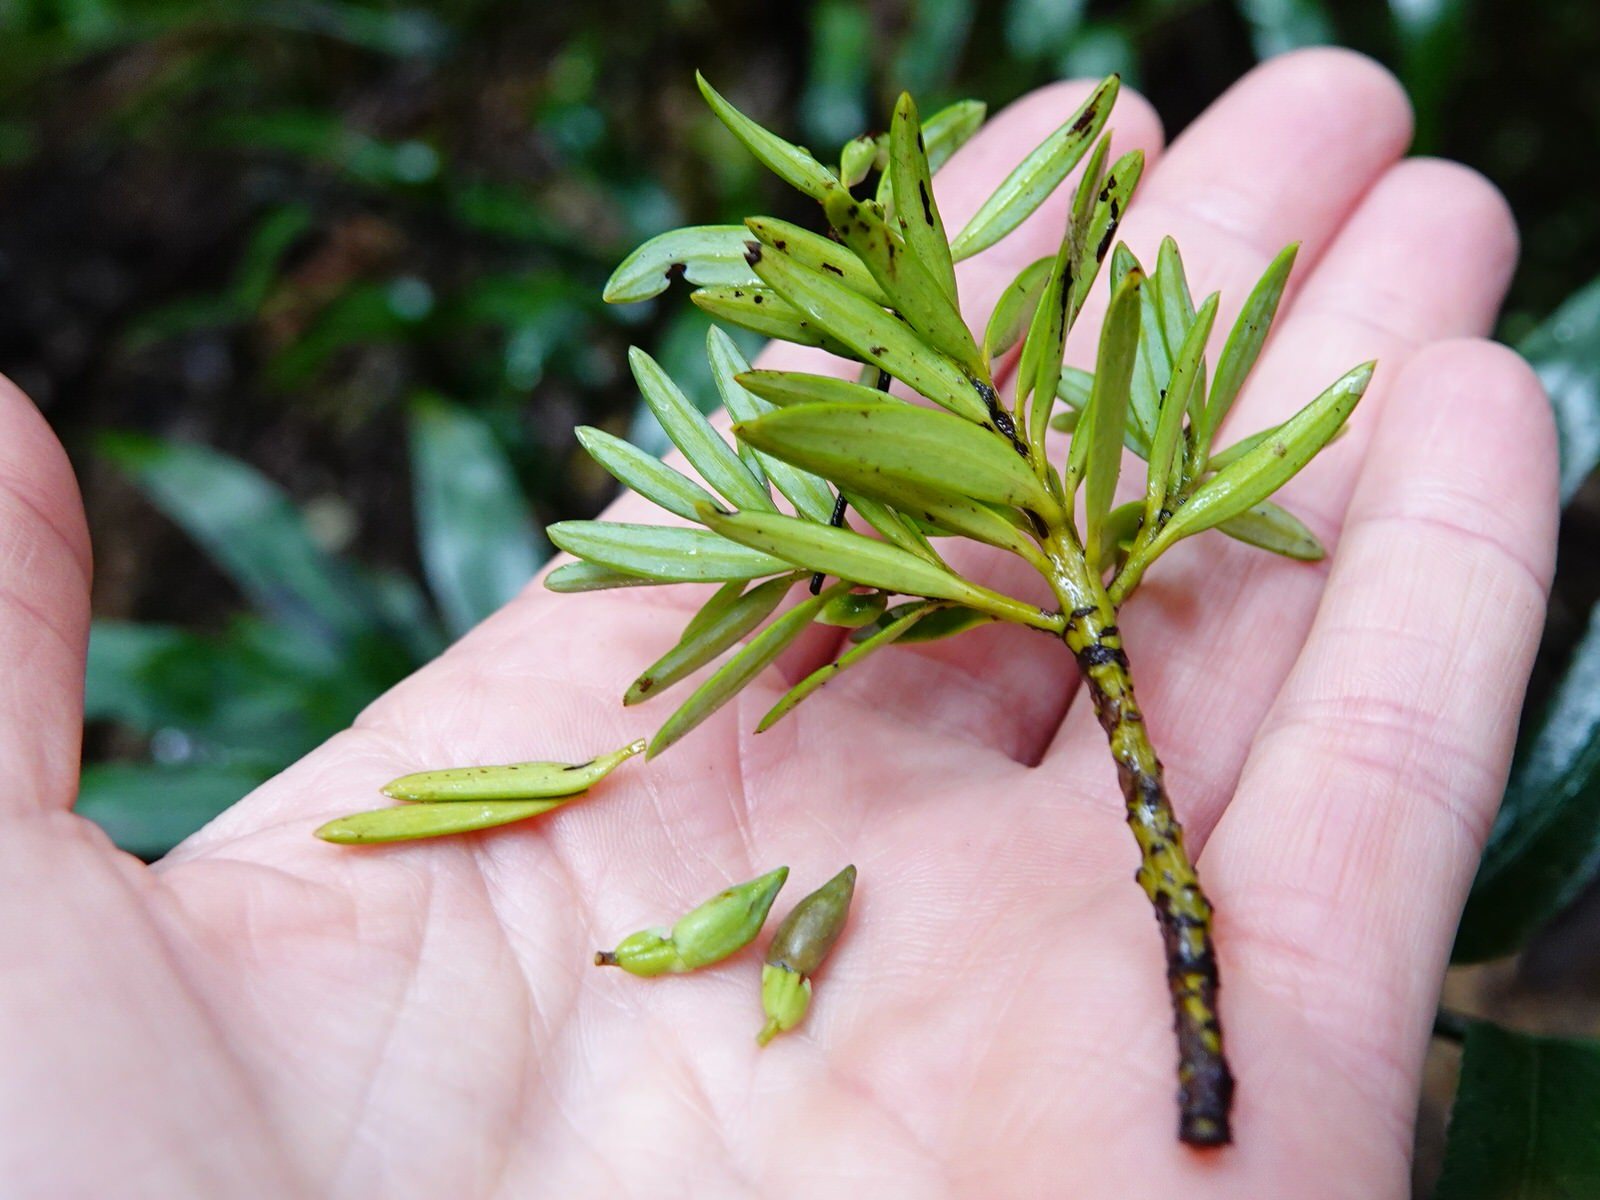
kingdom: Plantae
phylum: Tracheophyta
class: Pinopsida
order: Pinales
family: Podocarpaceae
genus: Podocarpus
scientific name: Podocarpus laetus
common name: Hall's totara
